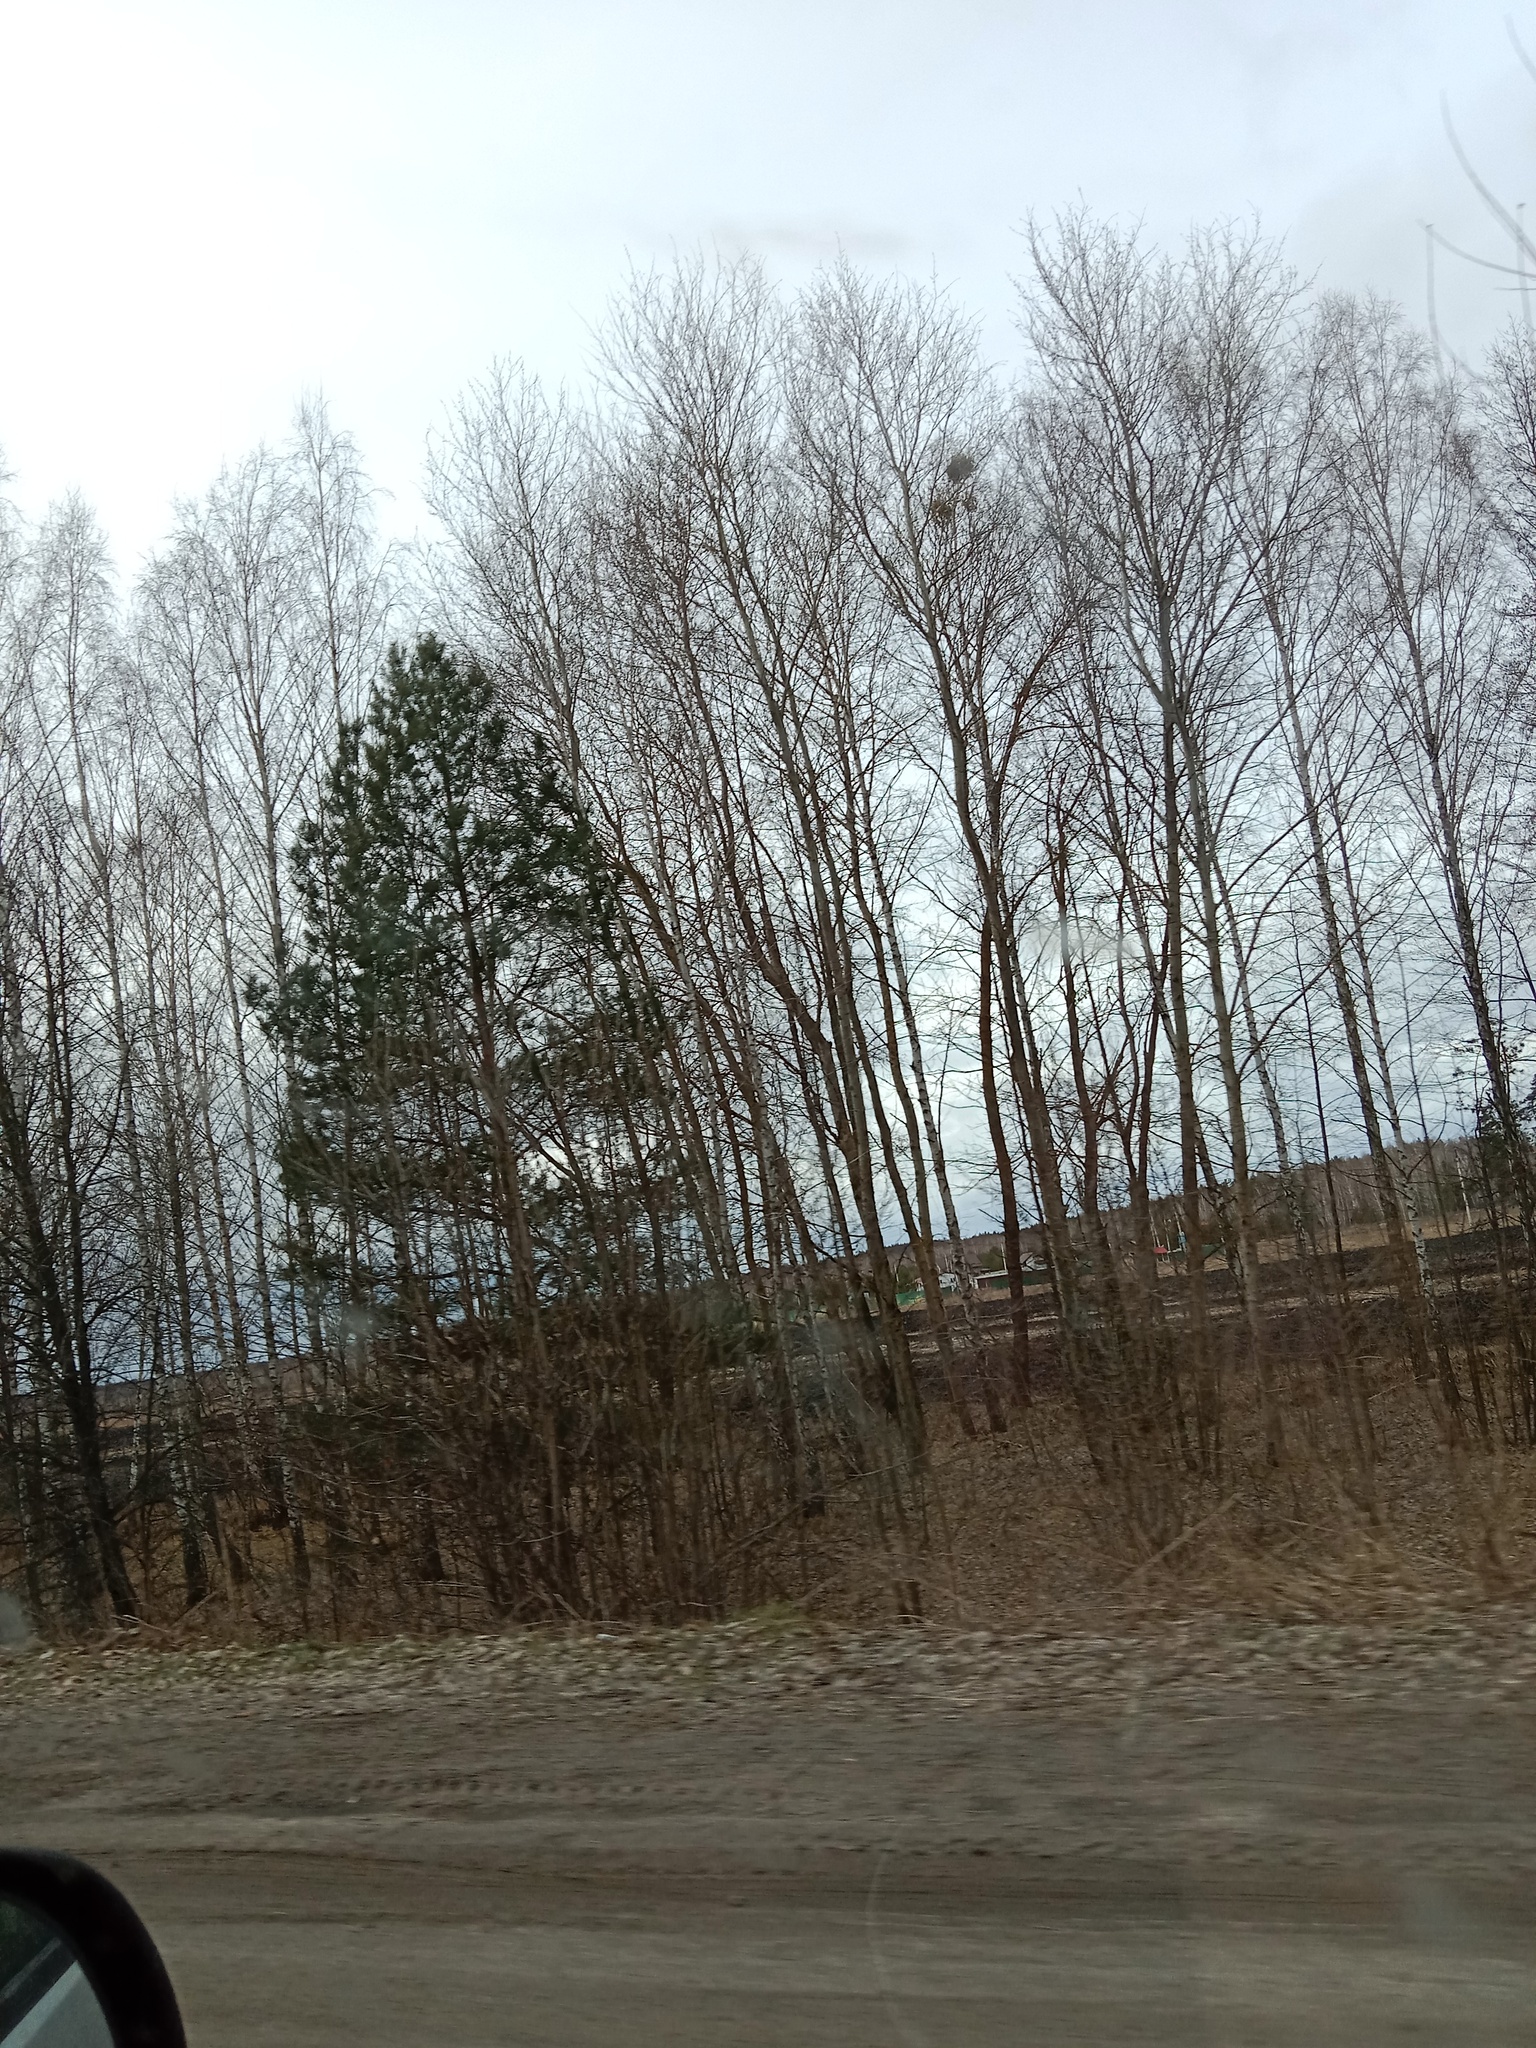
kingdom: Plantae
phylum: Tracheophyta
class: Magnoliopsida
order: Santalales
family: Viscaceae
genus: Viscum
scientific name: Viscum album
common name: Mistletoe
